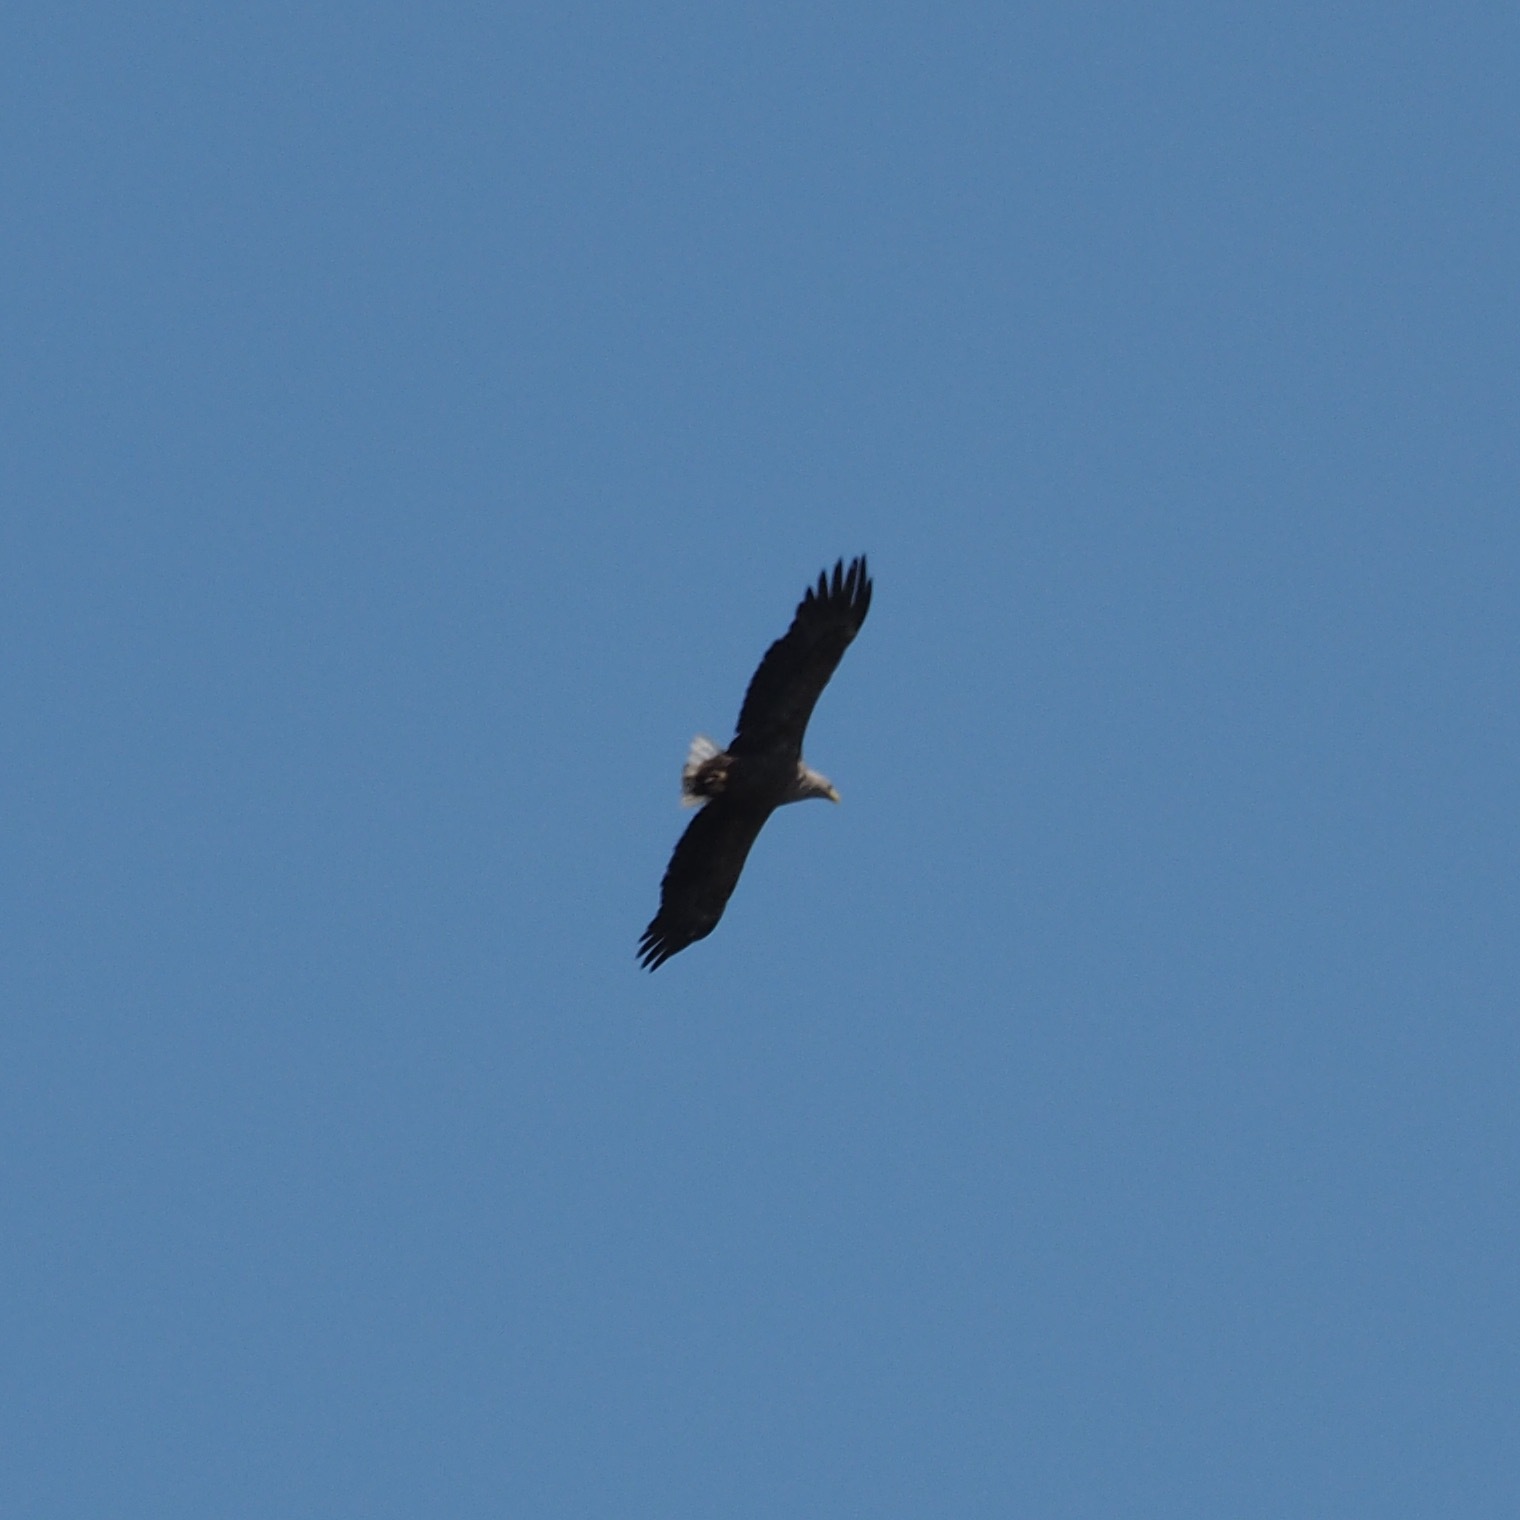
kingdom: Animalia
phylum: Chordata
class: Aves
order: Accipitriformes
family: Accipitridae
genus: Haliaeetus
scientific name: Haliaeetus albicilla
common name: White-tailed eagle
